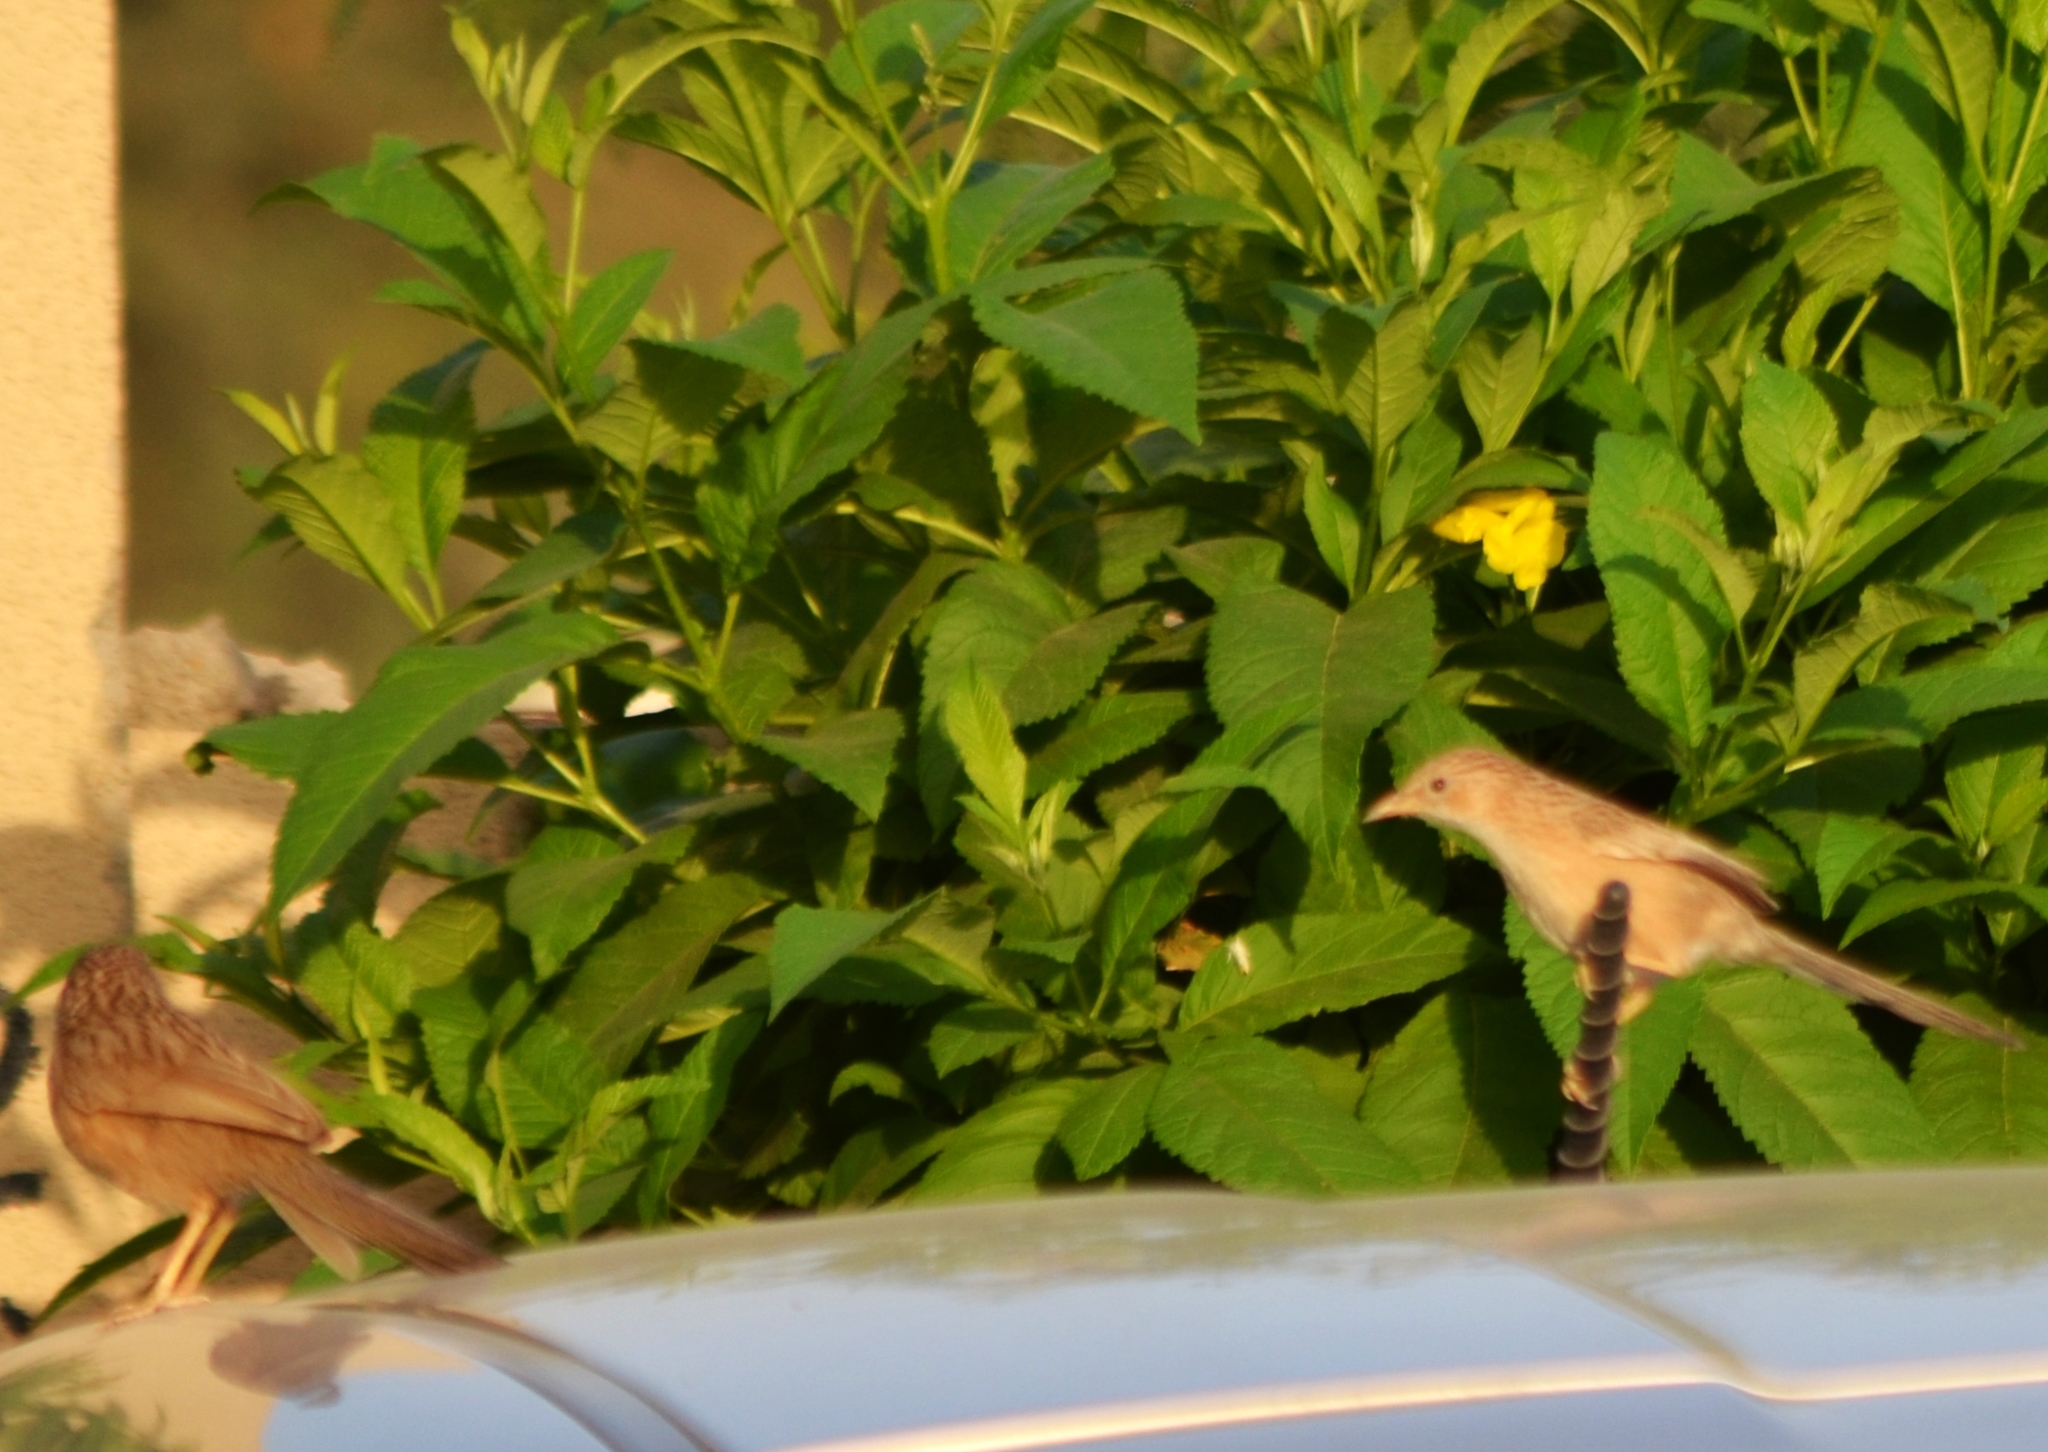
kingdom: Animalia
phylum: Chordata
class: Aves
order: Passeriformes
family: Leiothrichidae
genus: Turdoides
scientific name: Turdoides caudata
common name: Common babbler
